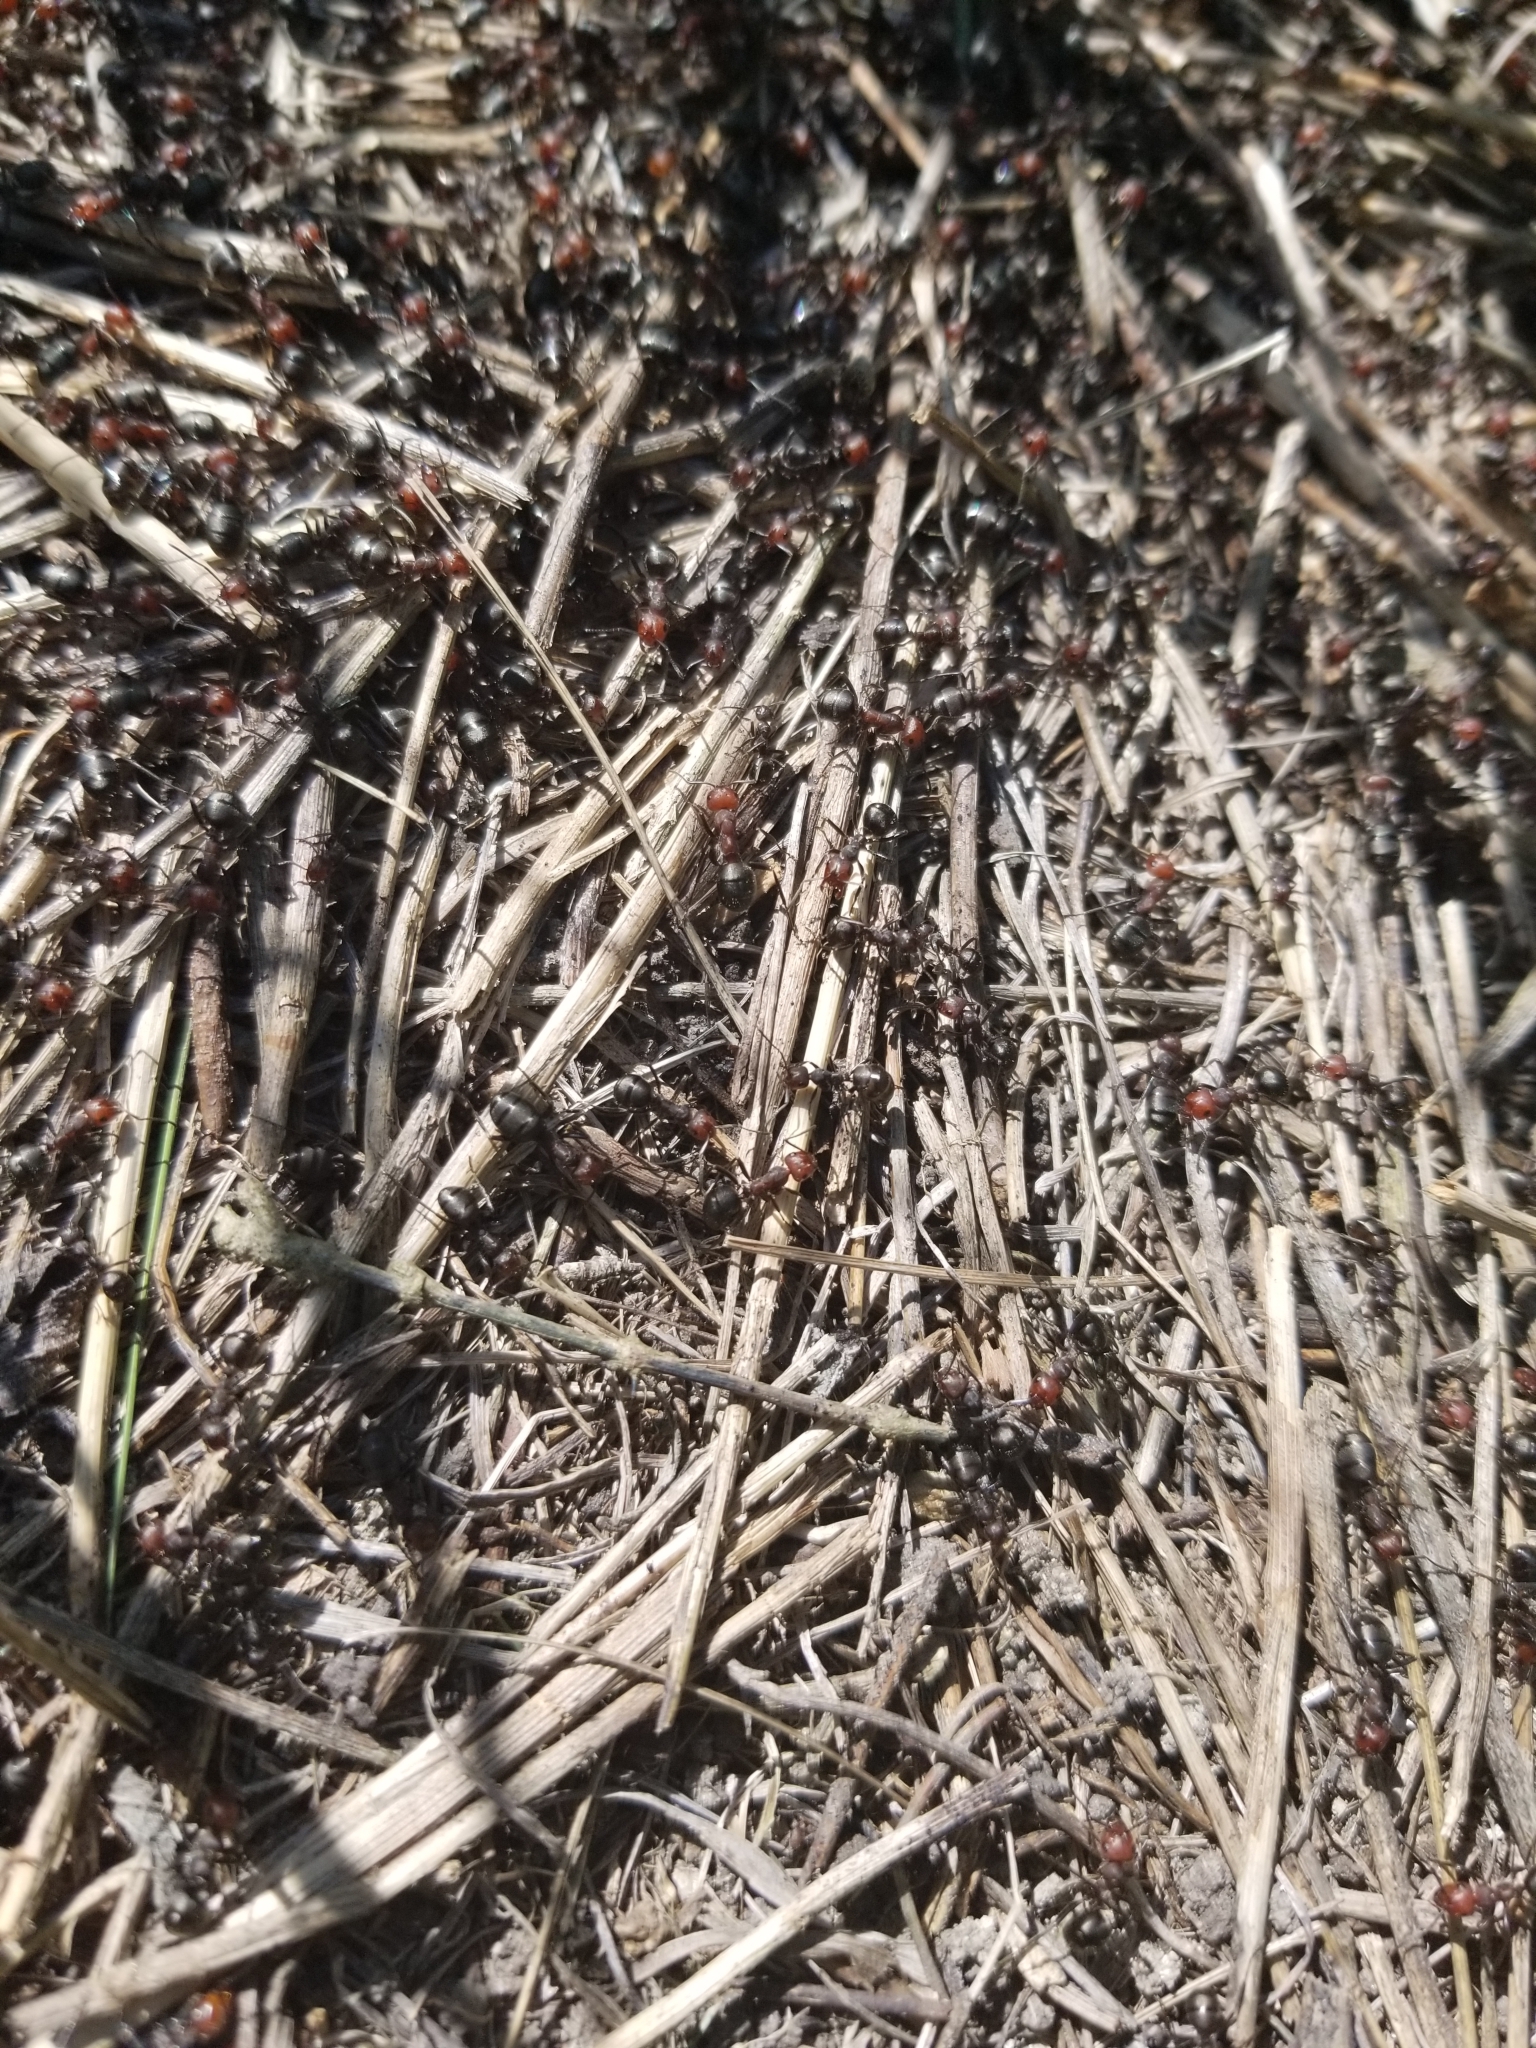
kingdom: Animalia
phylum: Arthropoda
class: Insecta
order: Hymenoptera
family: Formicidae
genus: Formica
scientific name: Formica obscuripes
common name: Western thatching ant
